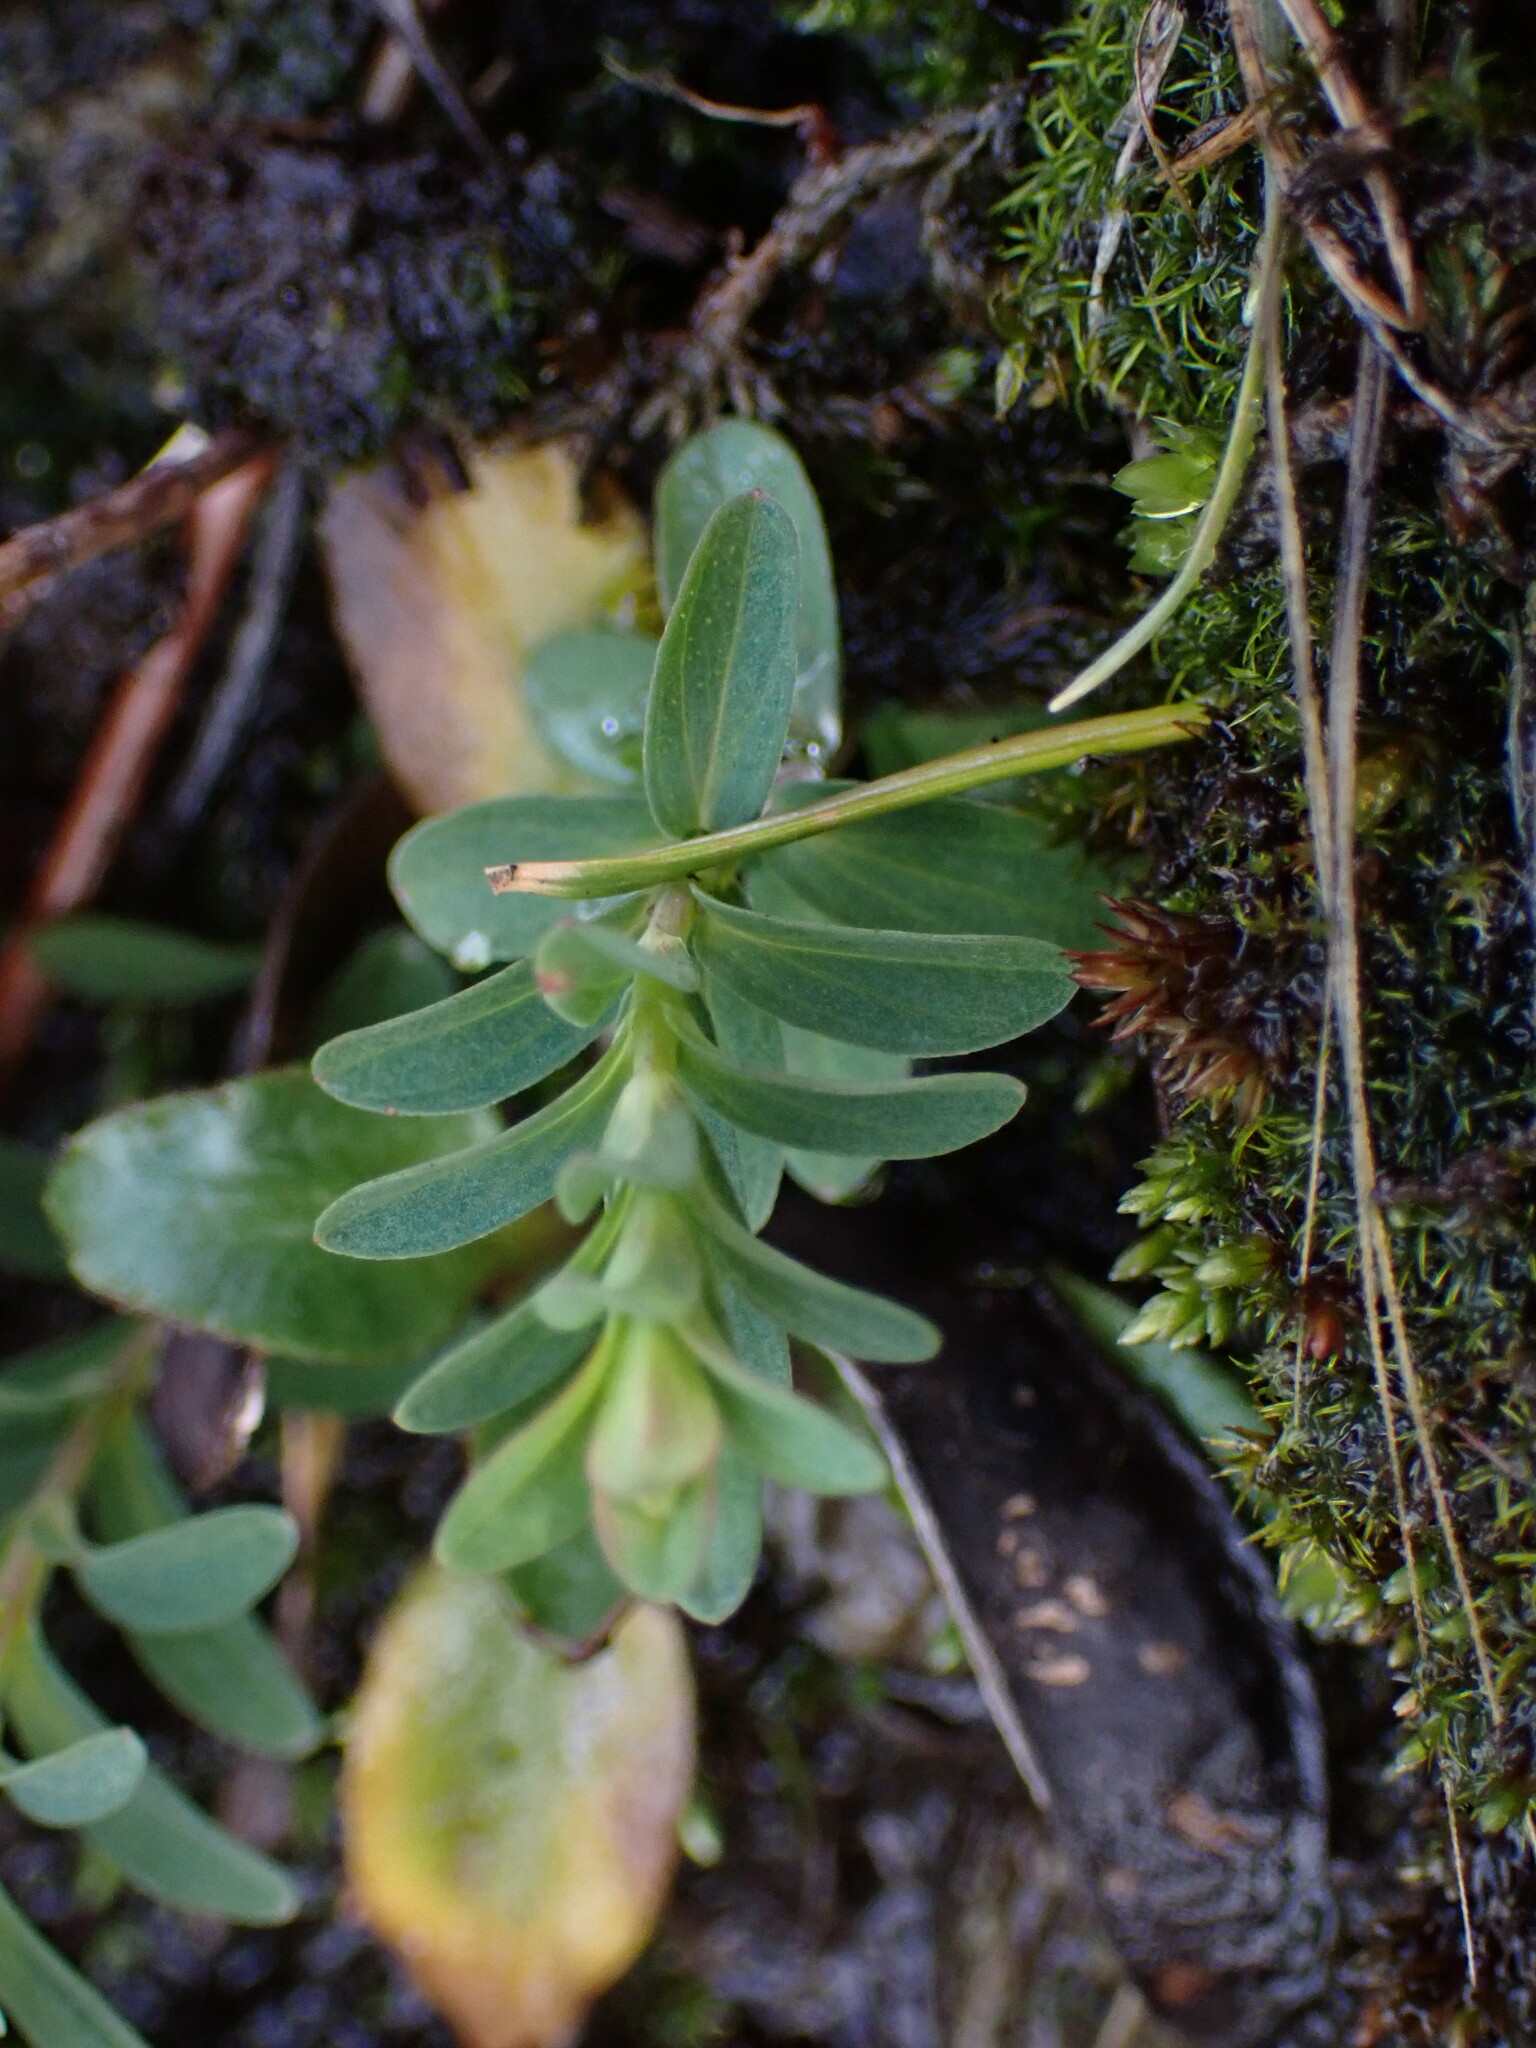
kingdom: Plantae
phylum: Tracheophyta
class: Magnoliopsida
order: Malpighiales
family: Hypericaceae
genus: Hypericum
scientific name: Hypericum perforatum
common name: Common st. johnswort
